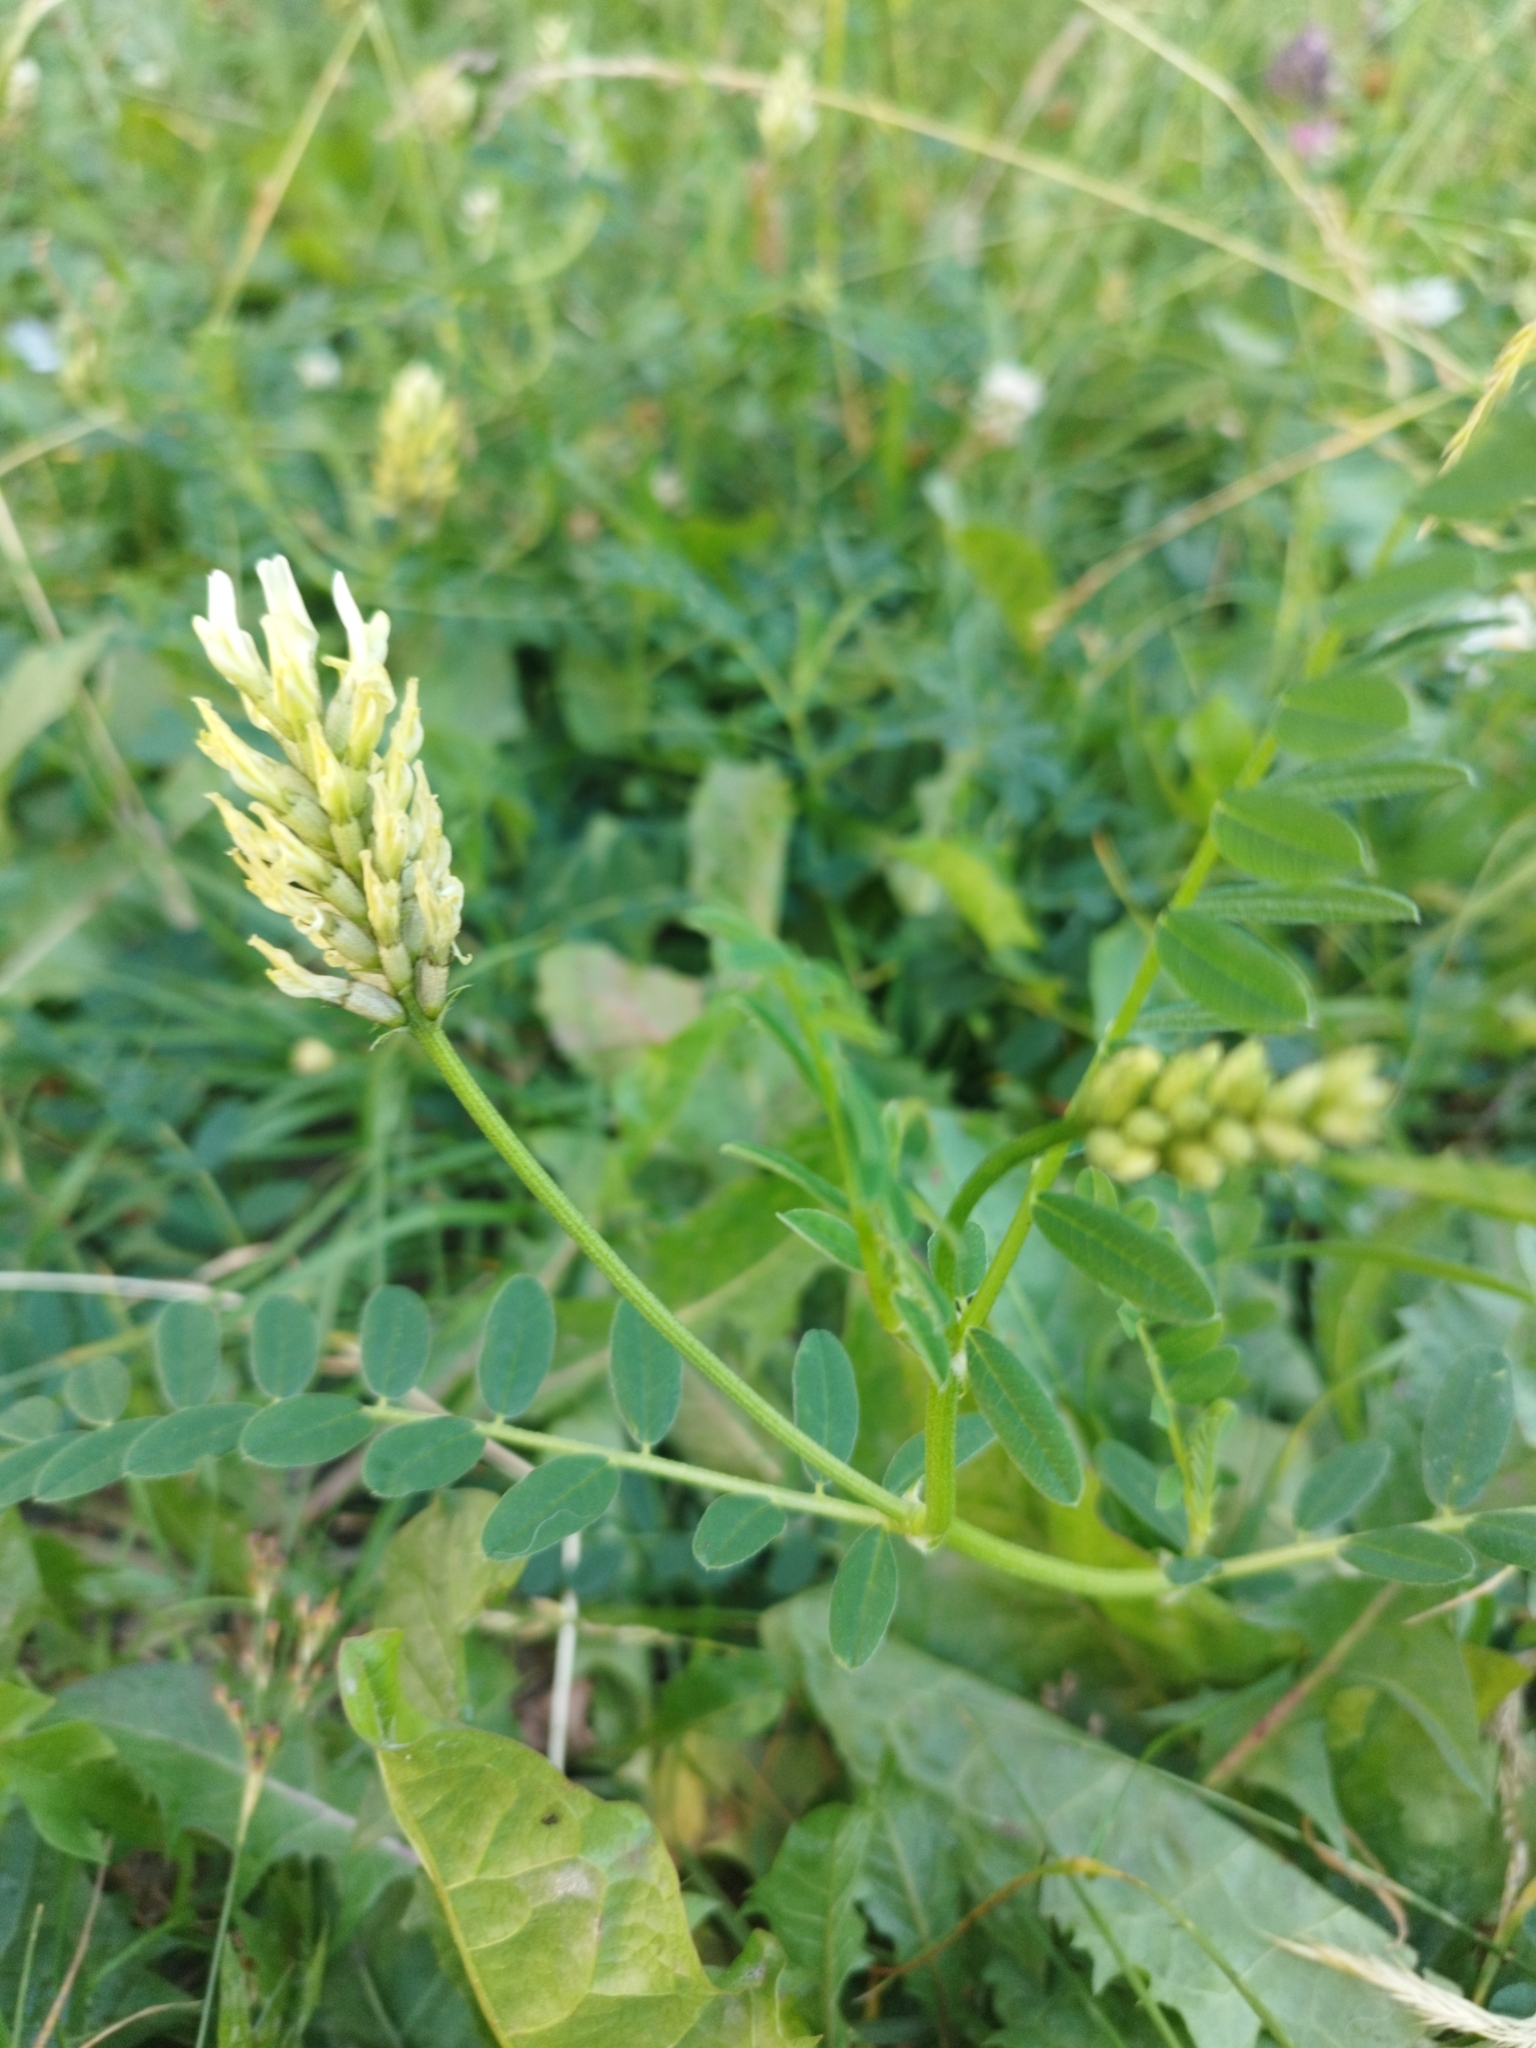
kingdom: Plantae
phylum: Tracheophyta
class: Magnoliopsida
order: Fabales
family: Fabaceae
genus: Astragalus
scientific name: Astragalus cicer
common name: Chick-pea milk-vetch
